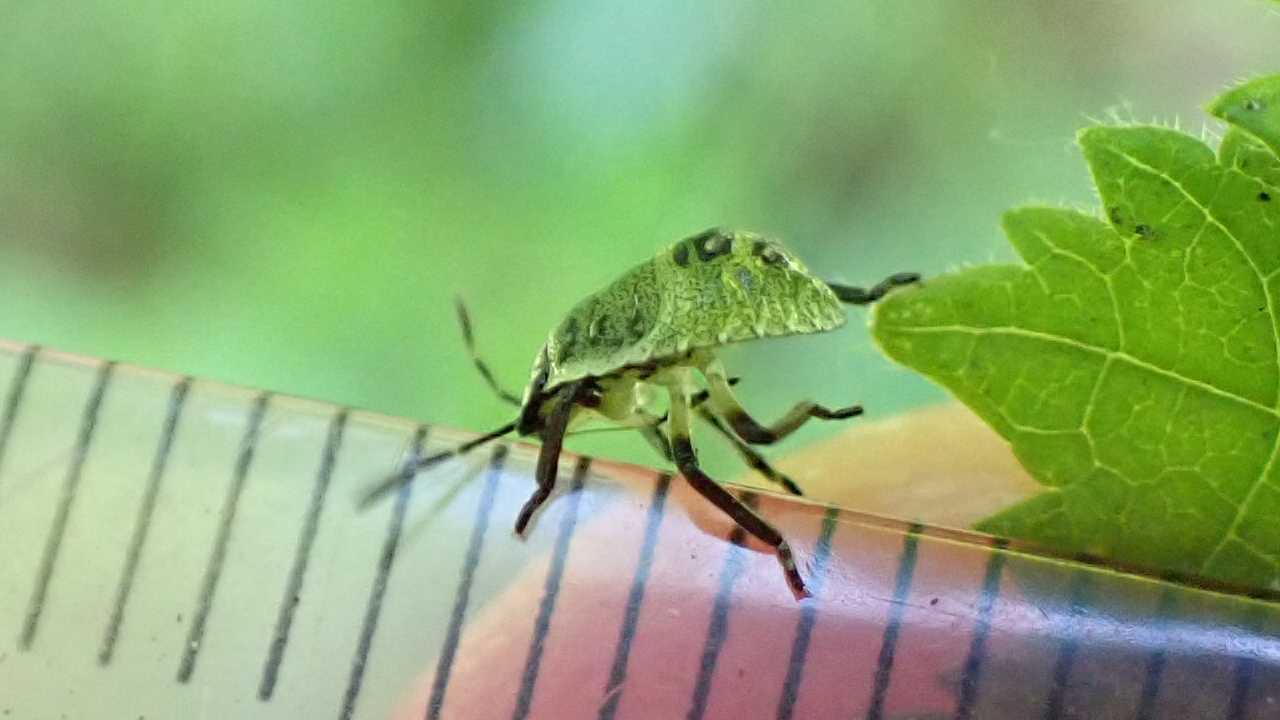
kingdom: Animalia
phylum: Arthropoda
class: Insecta
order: Hemiptera
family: Pentatomidae
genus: Palomena
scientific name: Palomena prasina
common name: Green shieldbug
